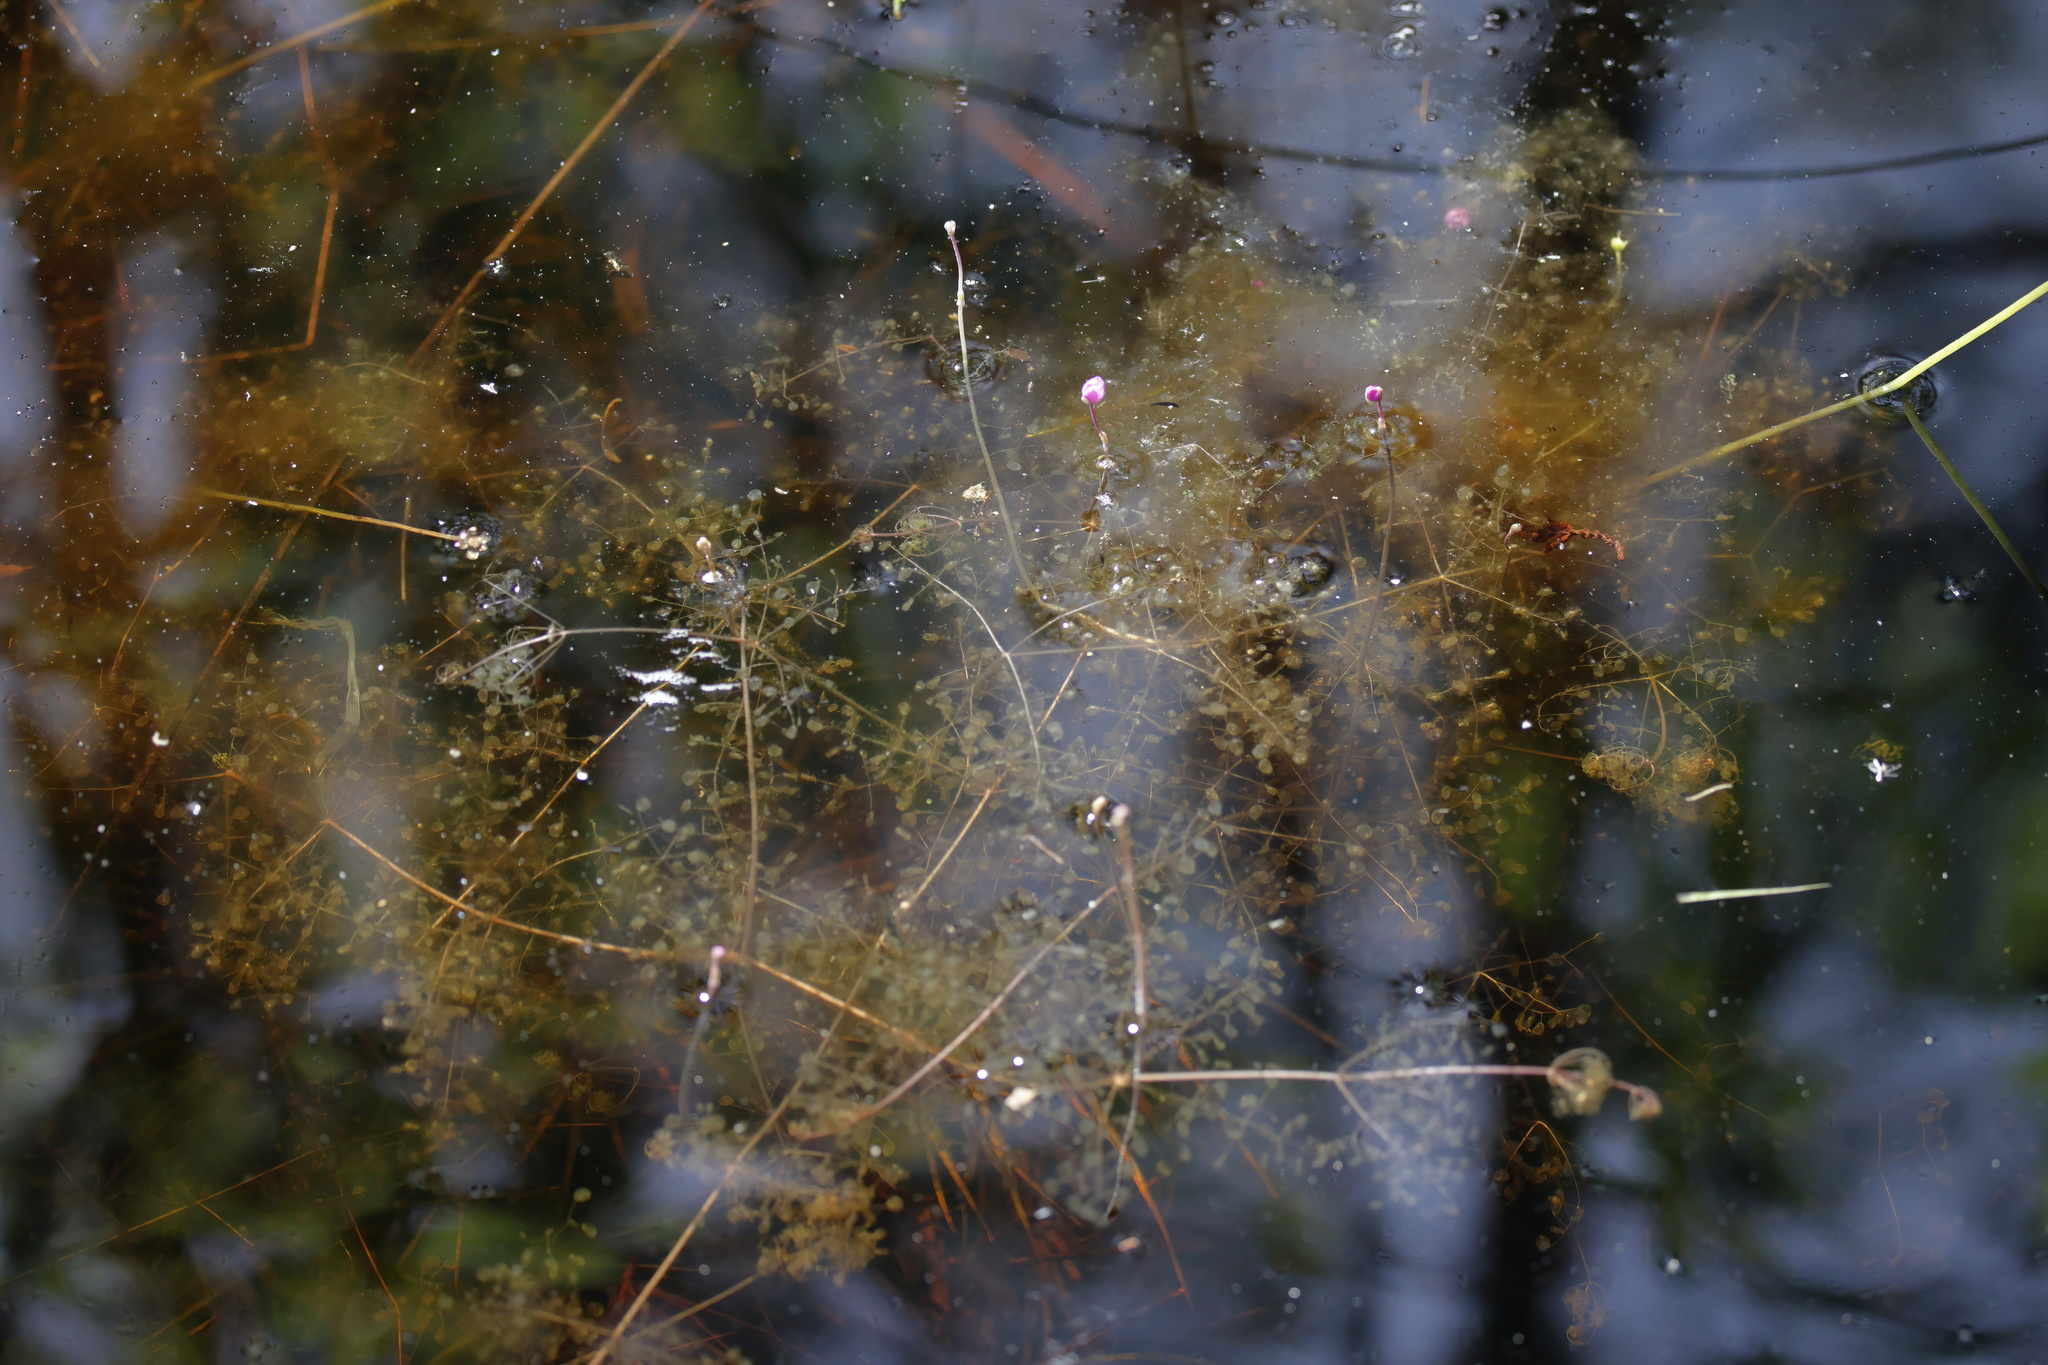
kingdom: Plantae
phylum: Tracheophyta
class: Magnoliopsida
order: Lamiales
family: Lentibulariaceae
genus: Utricularia
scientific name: Utricularia purpurea
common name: Eastern purple bladderwort
